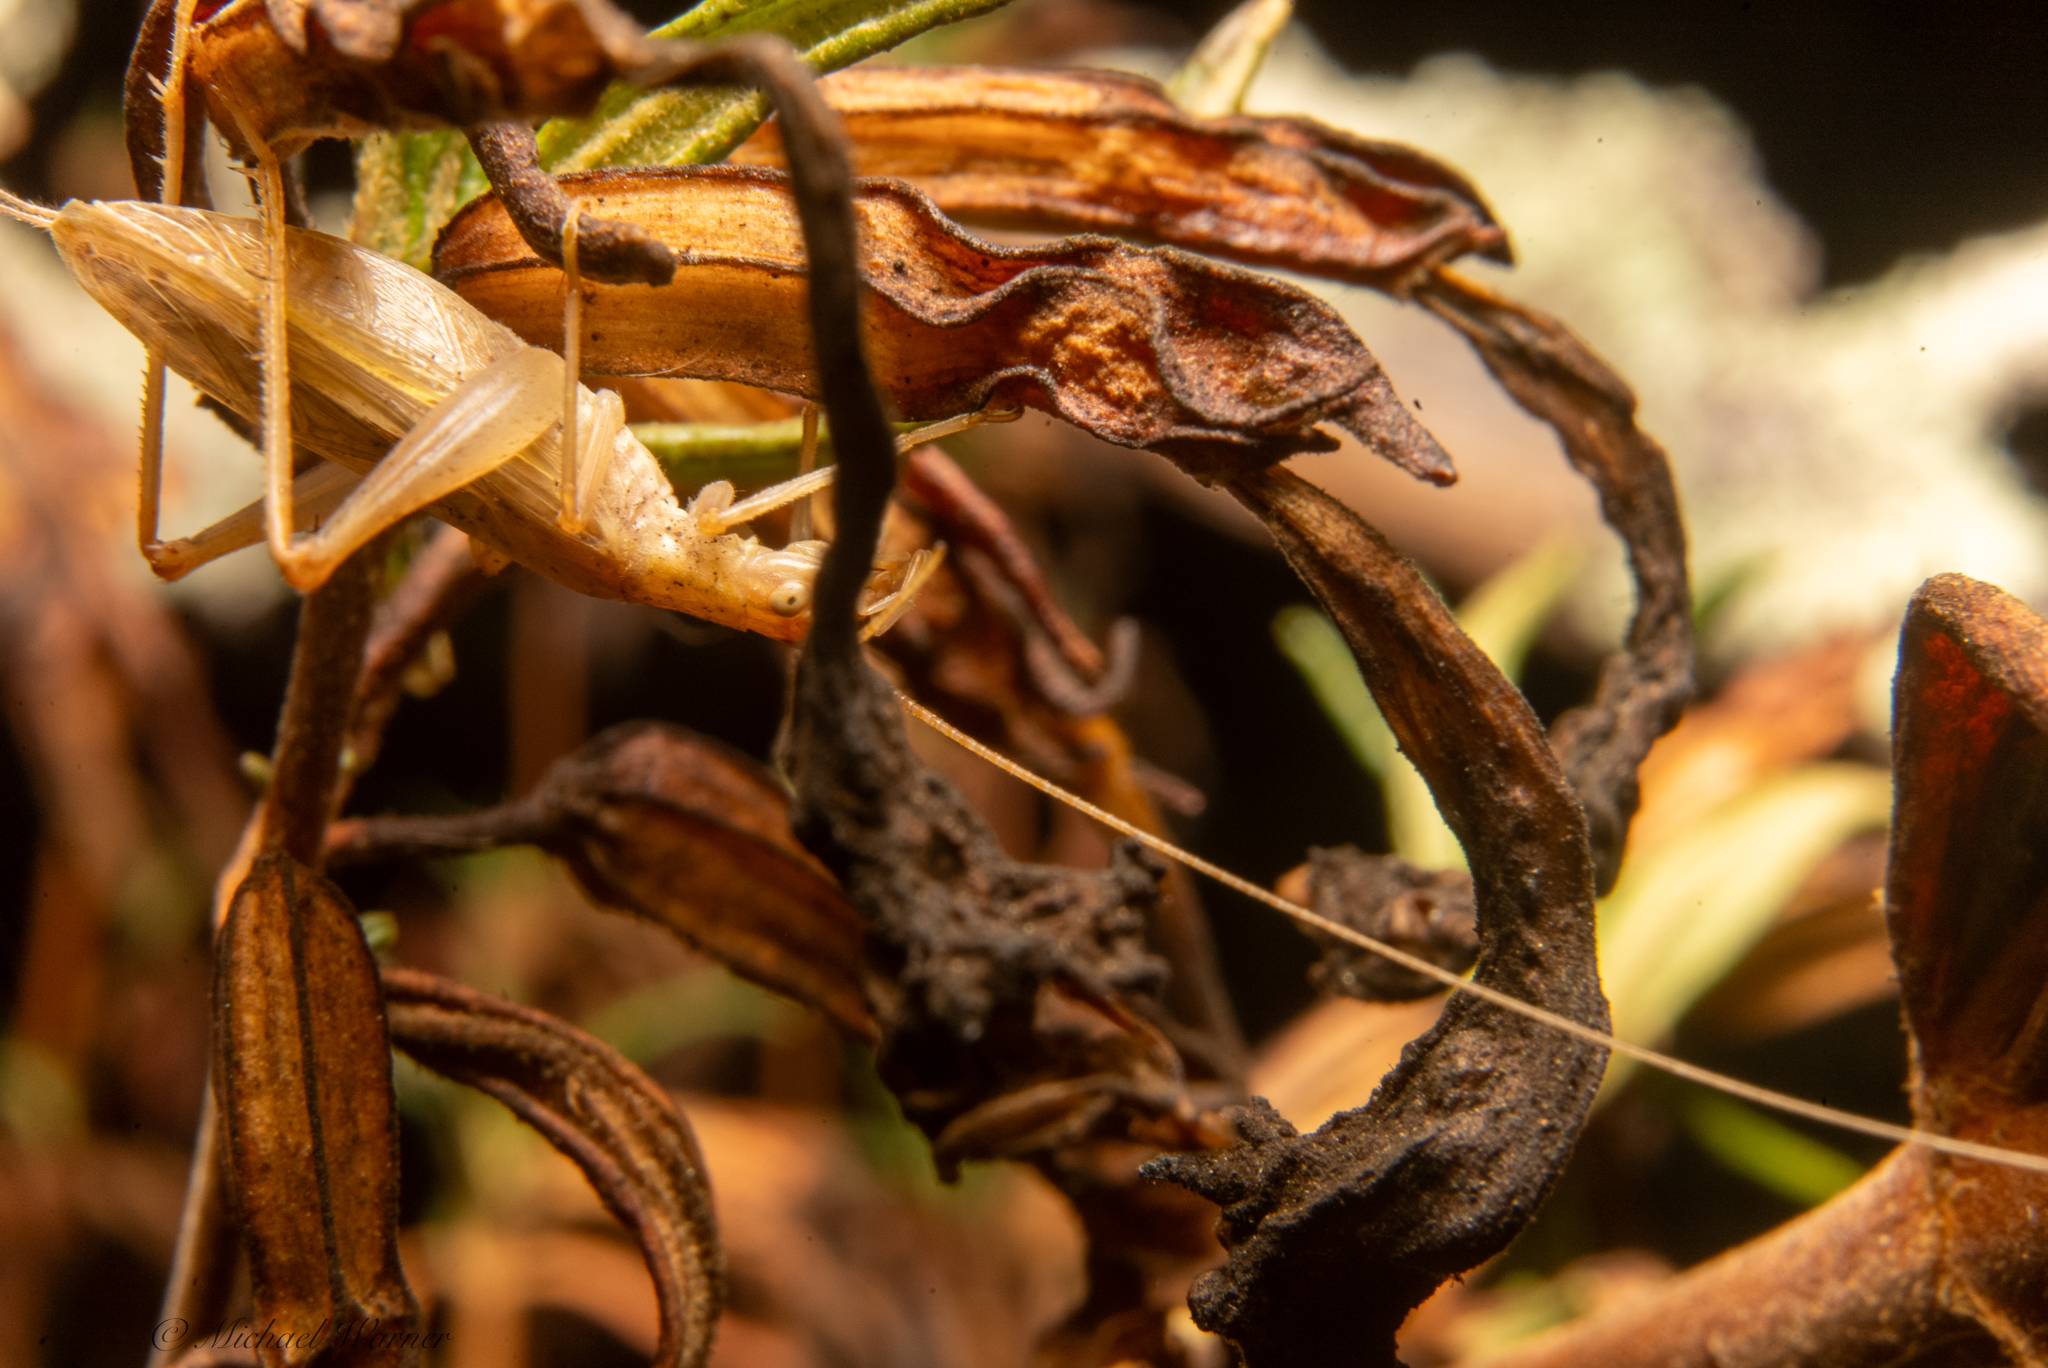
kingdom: Animalia
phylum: Arthropoda
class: Insecta
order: Orthoptera
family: Gryllidae
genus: Oecanthus
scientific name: Oecanthus californicus
